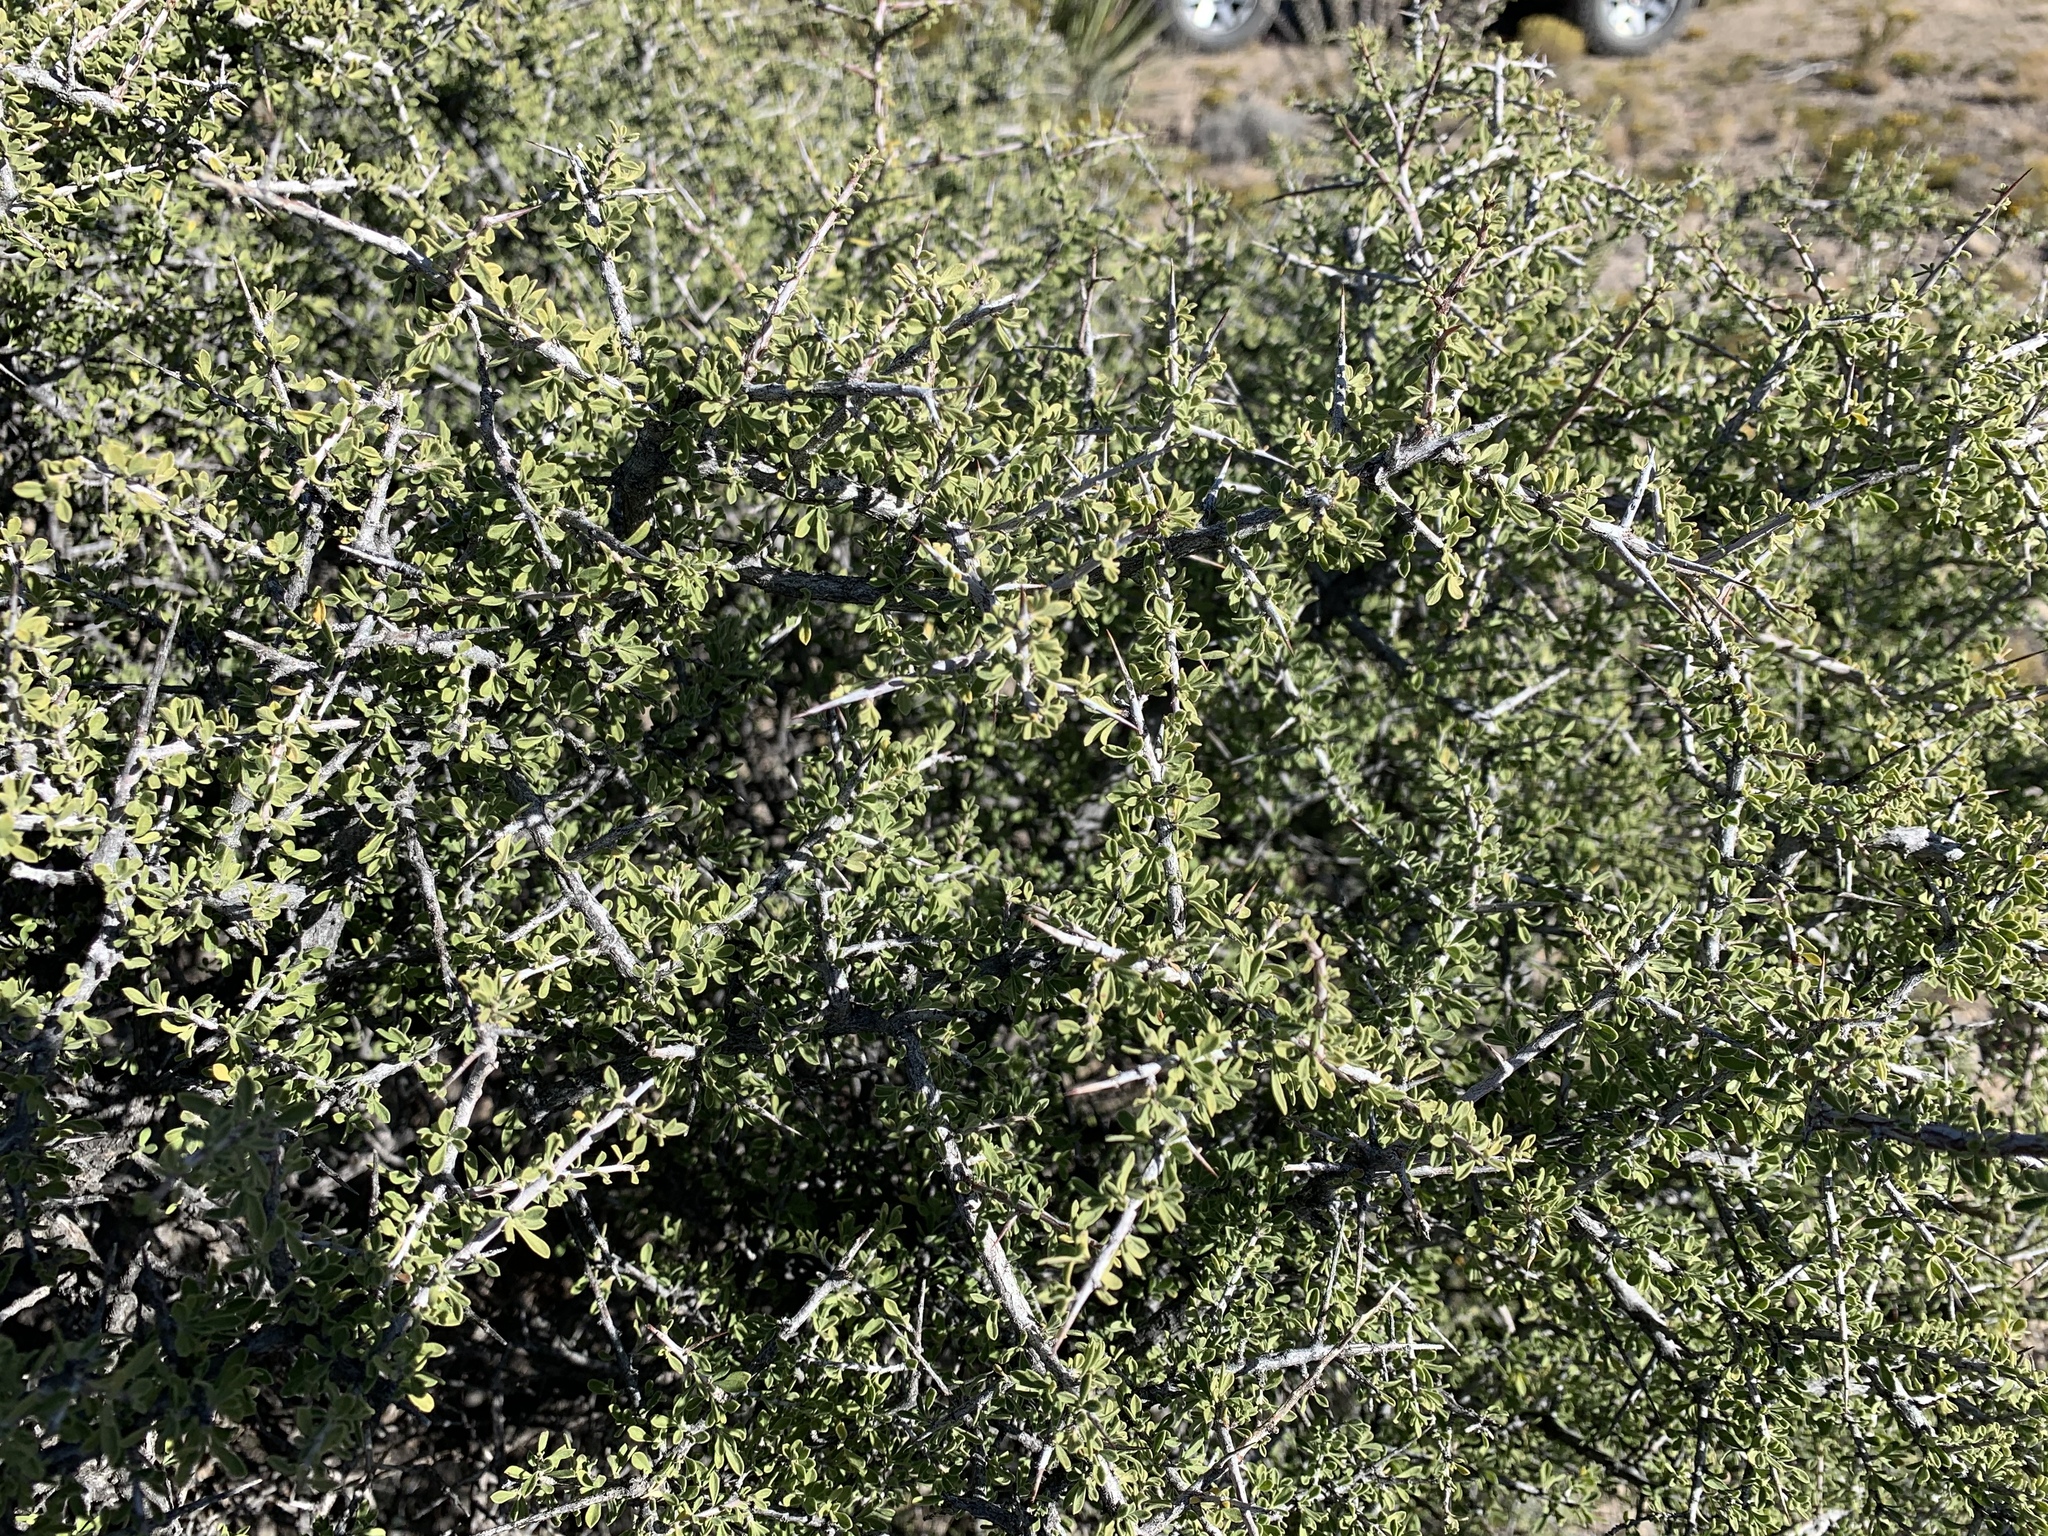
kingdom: Plantae
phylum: Tracheophyta
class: Magnoliopsida
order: Rosales
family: Rhamnaceae
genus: Condalia
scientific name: Condalia warnockii
